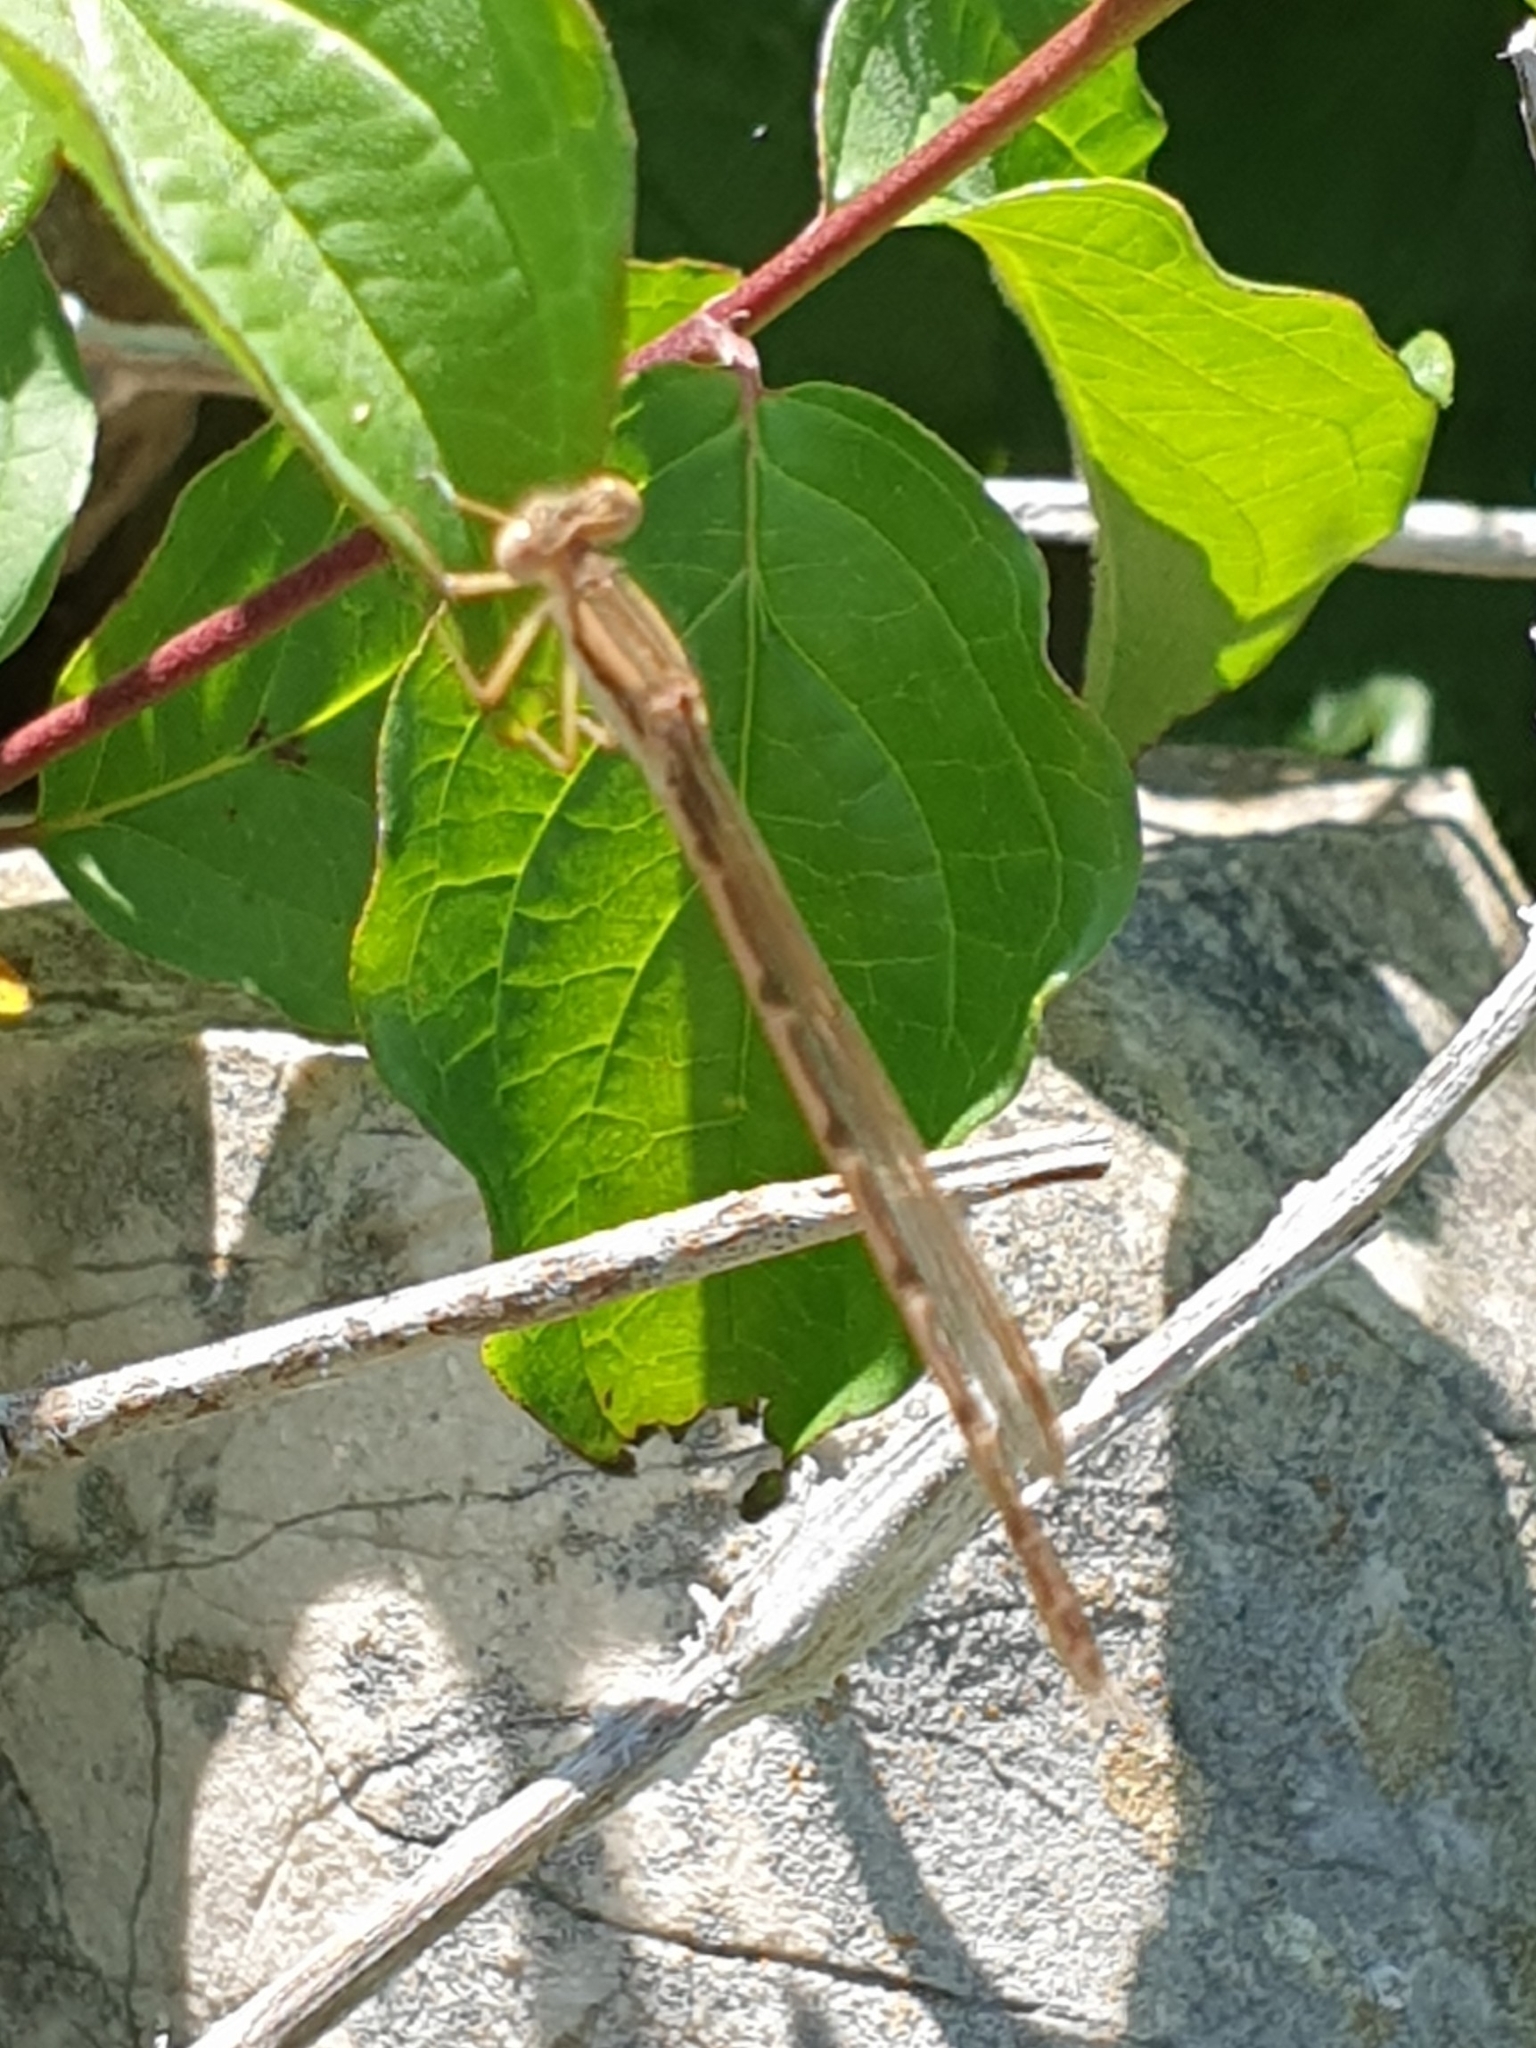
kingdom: Animalia
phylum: Arthropoda
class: Insecta
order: Odonata
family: Lestidae
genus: Sympecma
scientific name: Sympecma fusca
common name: Common winter damsel
